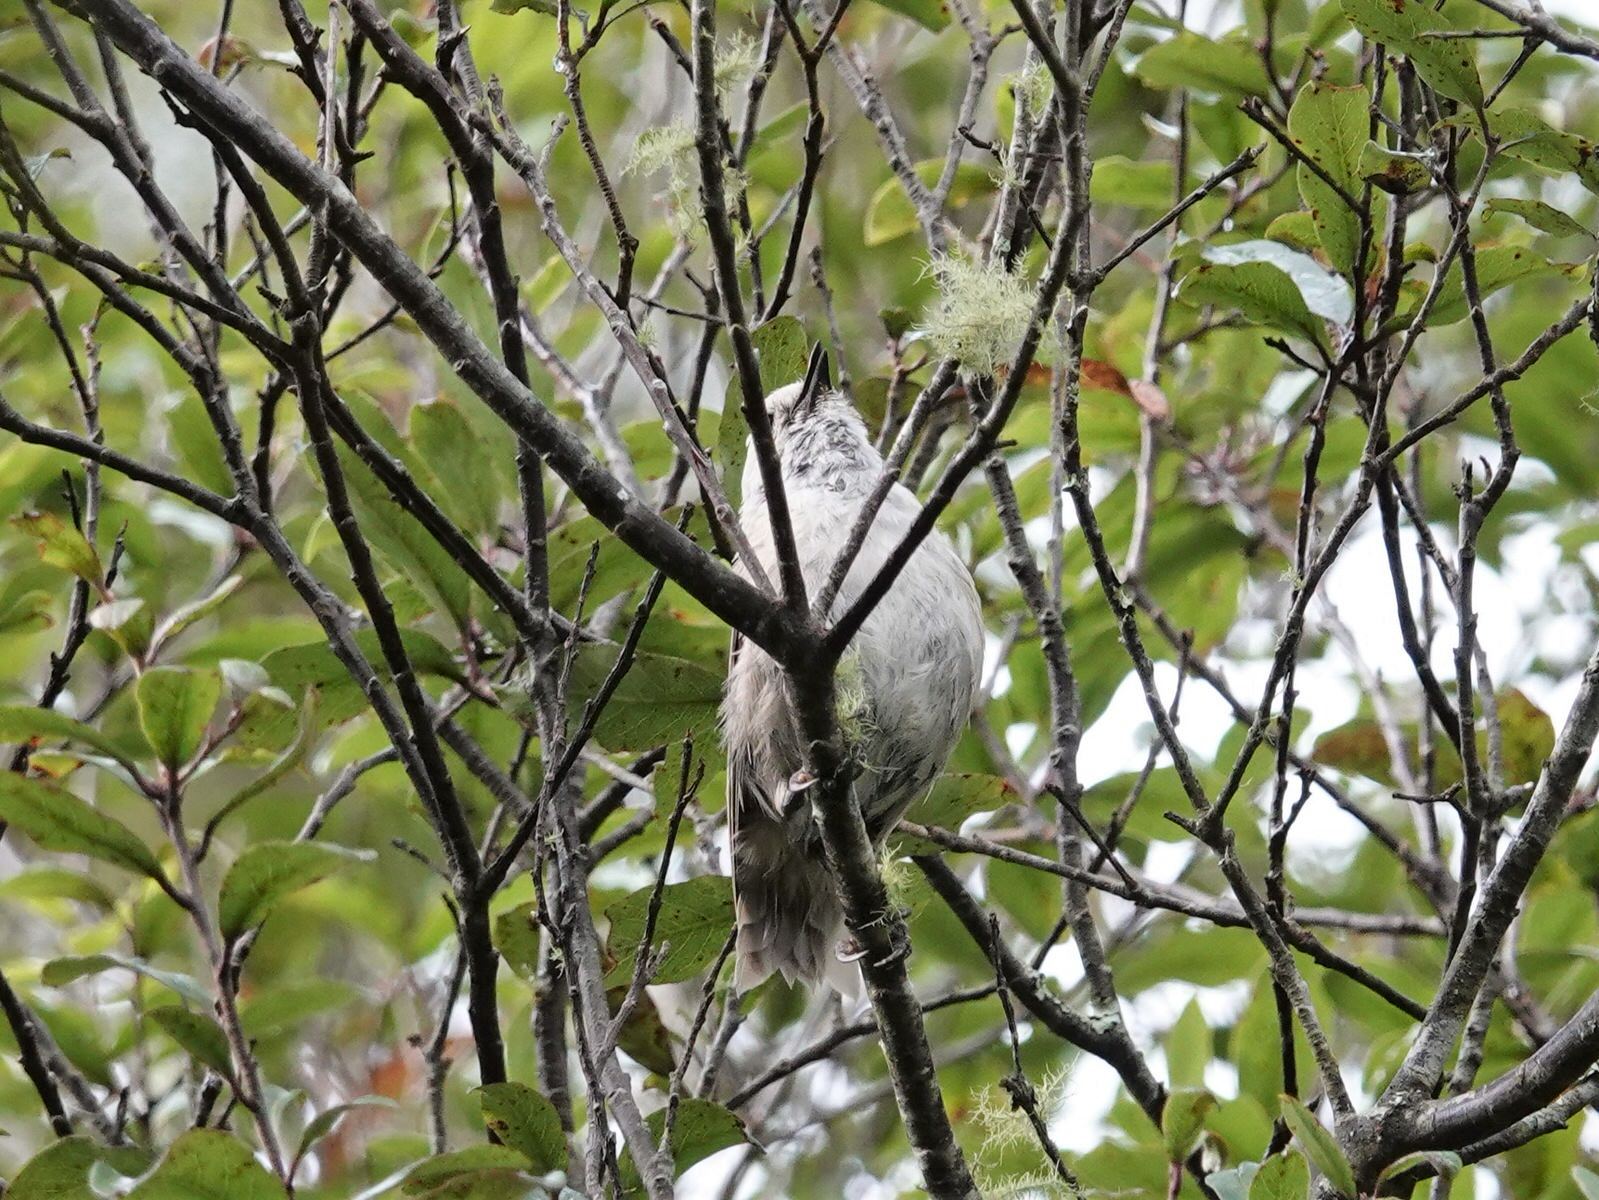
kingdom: Animalia
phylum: Chordata
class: Aves
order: Passeriformes
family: Acanthizidae
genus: Mohoua
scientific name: Mohoua albicilla
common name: Whitehead
